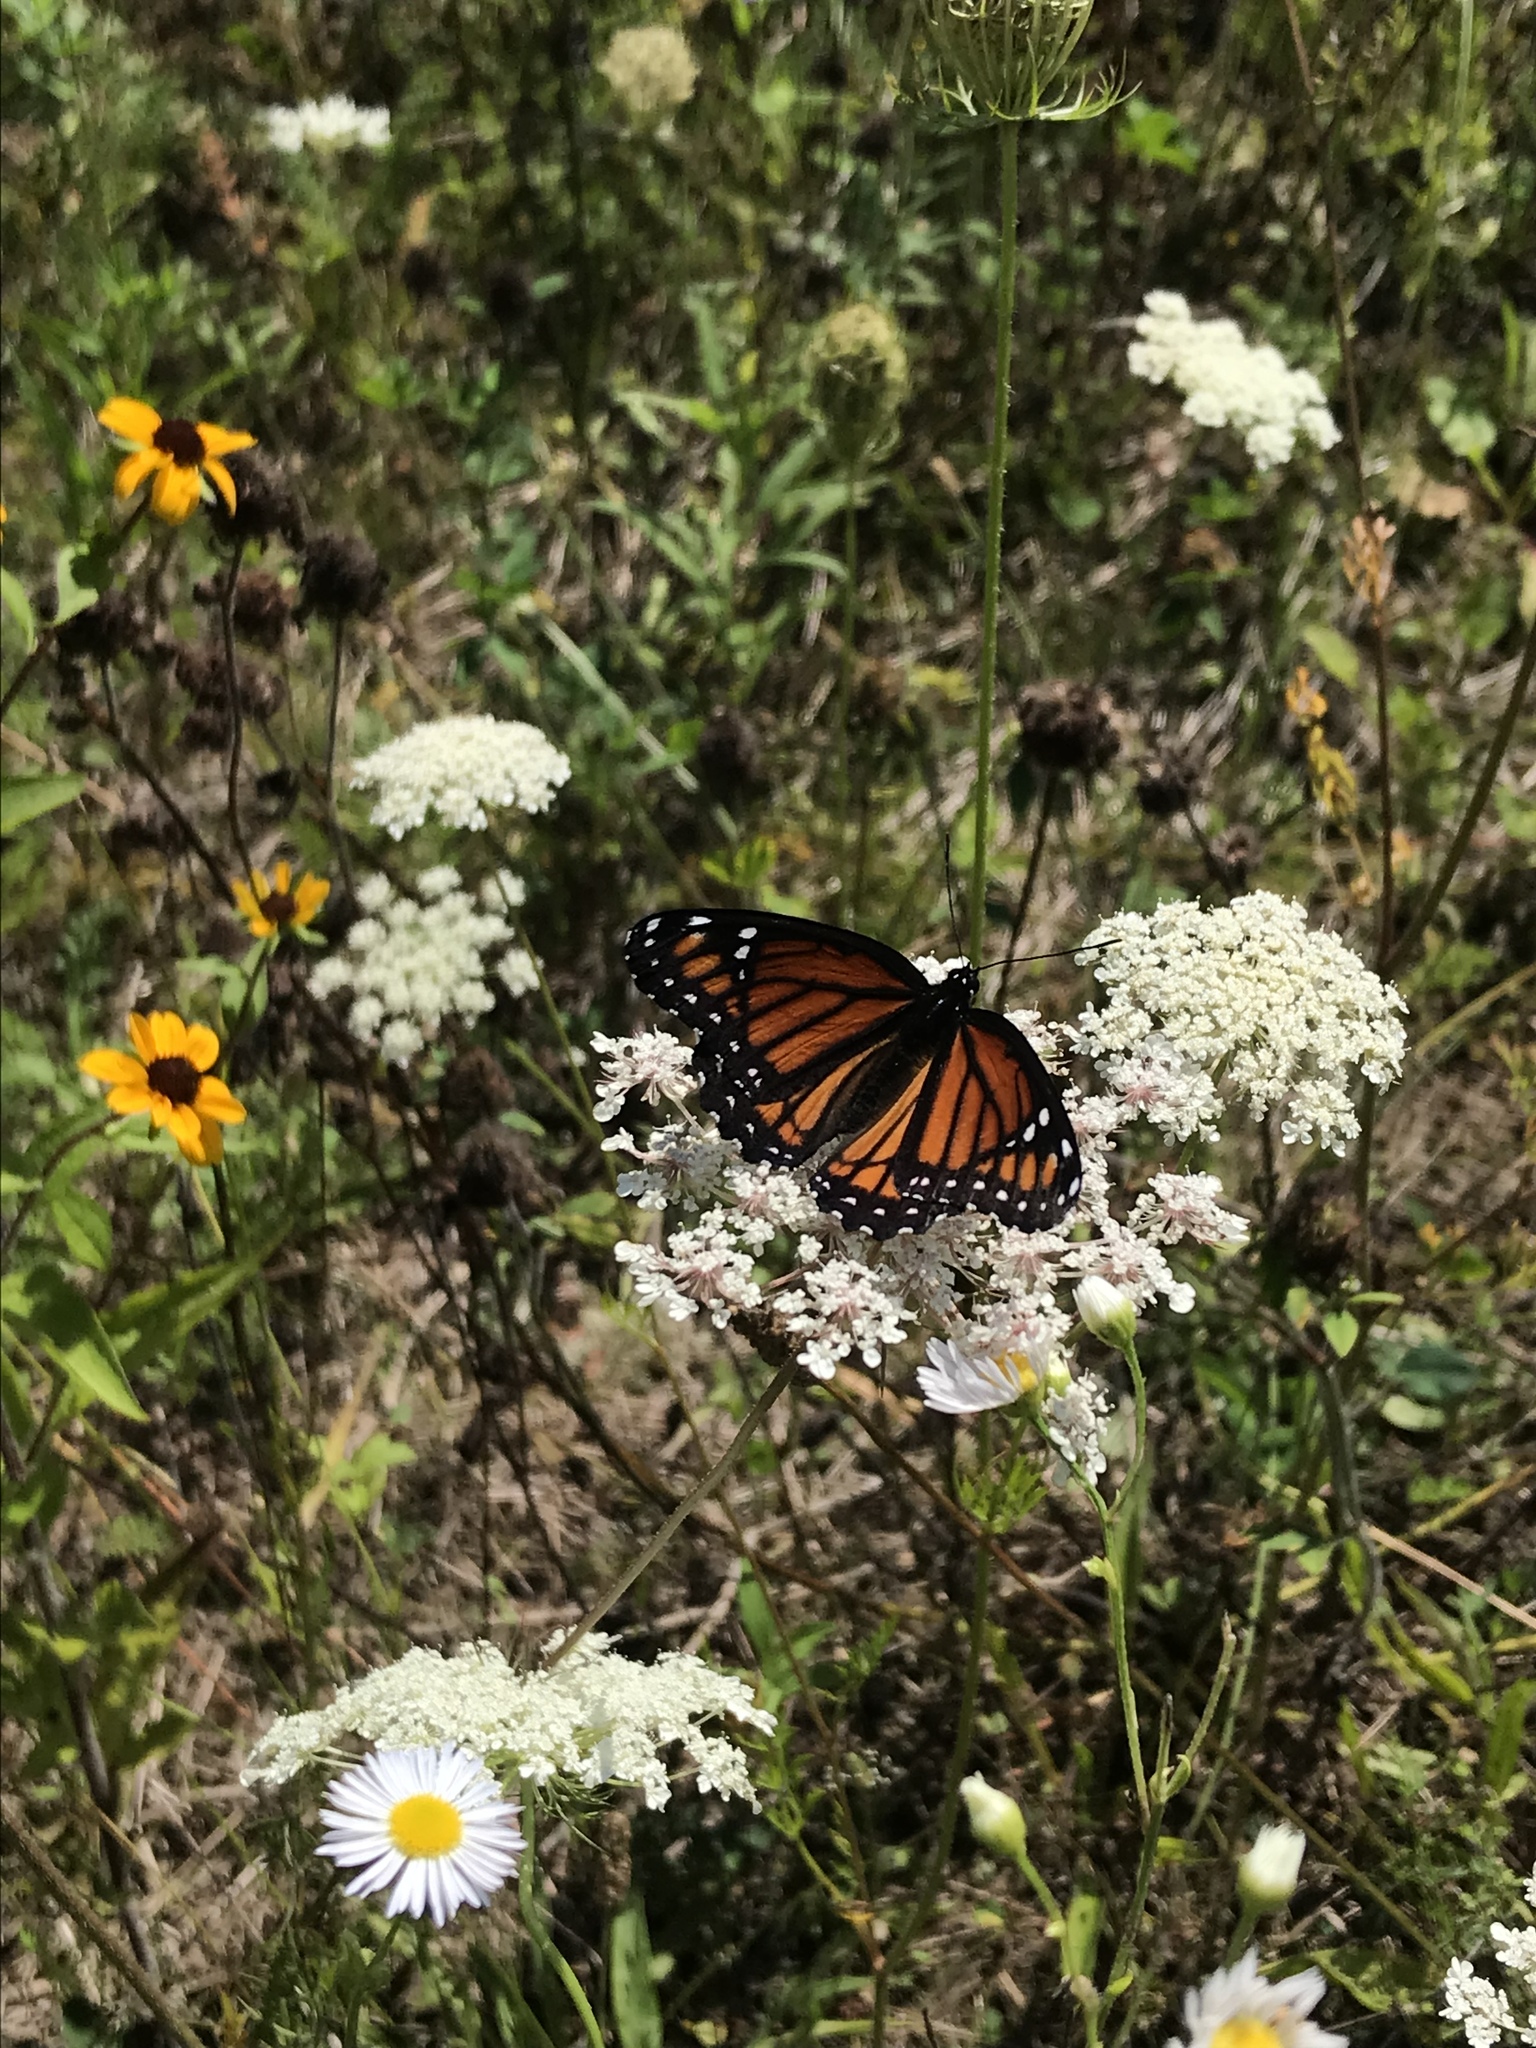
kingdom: Animalia
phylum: Arthropoda
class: Insecta
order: Lepidoptera
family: Nymphalidae
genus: Limenitis
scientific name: Limenitis archippus
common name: Viceroy
